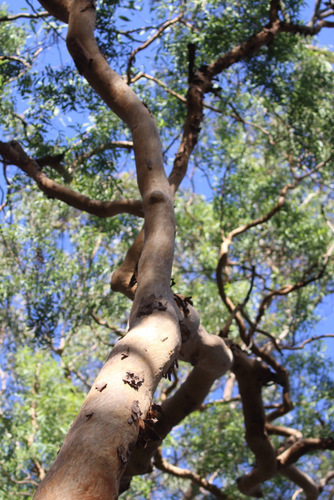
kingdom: Plantae
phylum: Tracheophyta
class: Magnoliopsida
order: Myrtales
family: Myrtaceae
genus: Angophora
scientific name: Angophora leiocarpa
